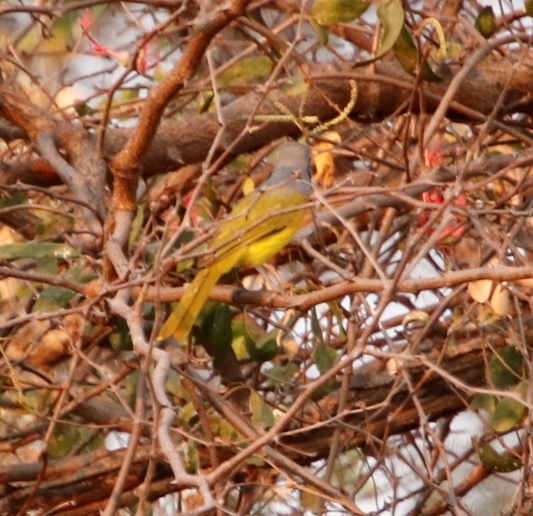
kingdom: Animalia
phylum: Chordata
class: Aves
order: Passeriformes
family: Malaconotidae
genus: Chlorophoneus
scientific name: Chlorophoneus sulfureopectus
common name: Orange-breasted bushshrike
